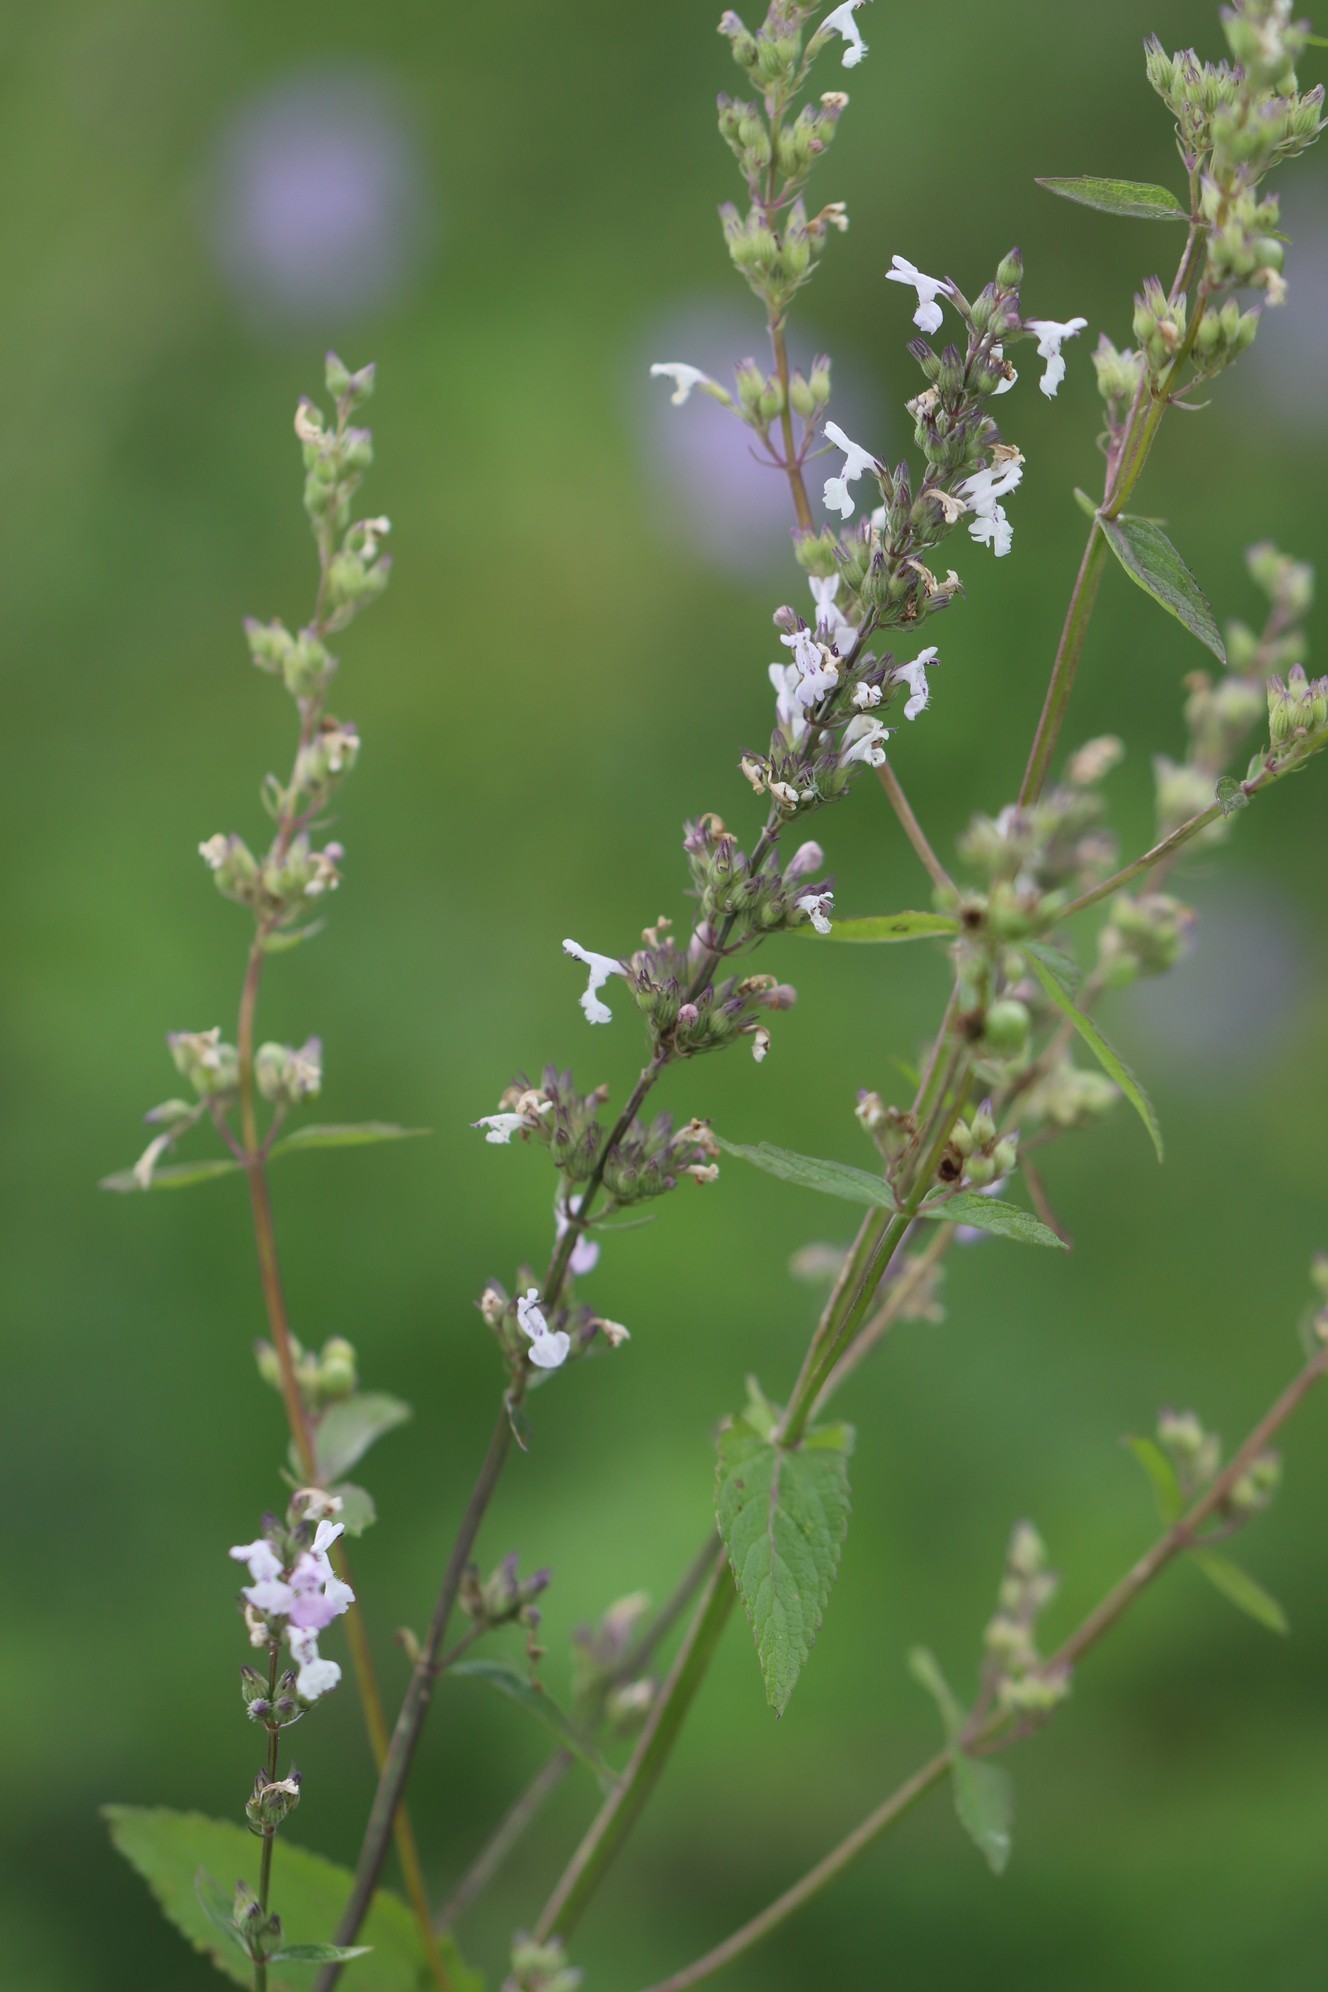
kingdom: Plantae
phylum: Tracheophyta
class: Magnoliopsida
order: Lamiales
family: Lamiaceae
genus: Nepeta
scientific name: Nepeta nuda
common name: Hairless catmint
